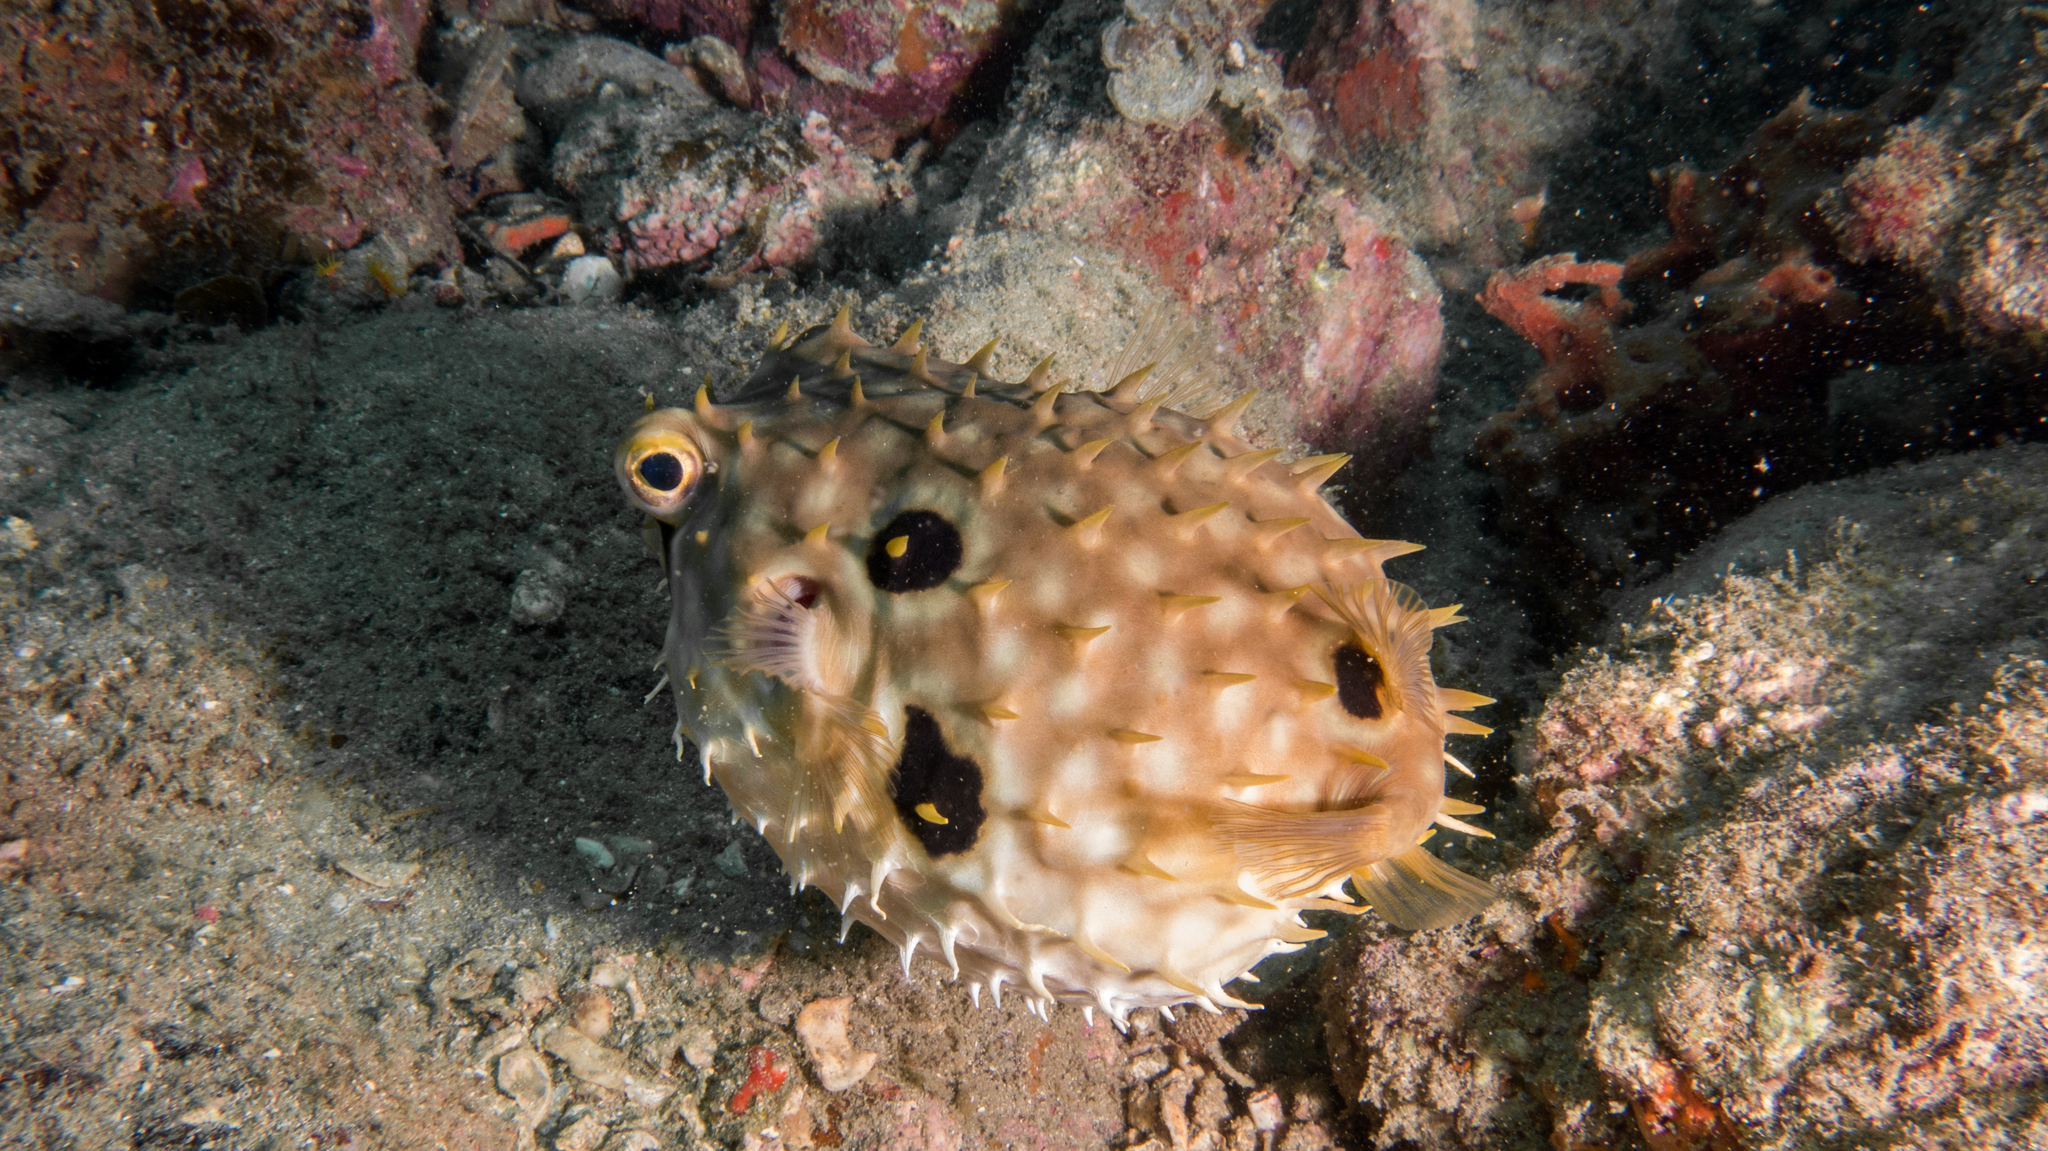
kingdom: Animalia
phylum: Chordata
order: Tetraodontiformes
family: Diodontidae
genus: Chilomycterus
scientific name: Chilomycterus spinosus
